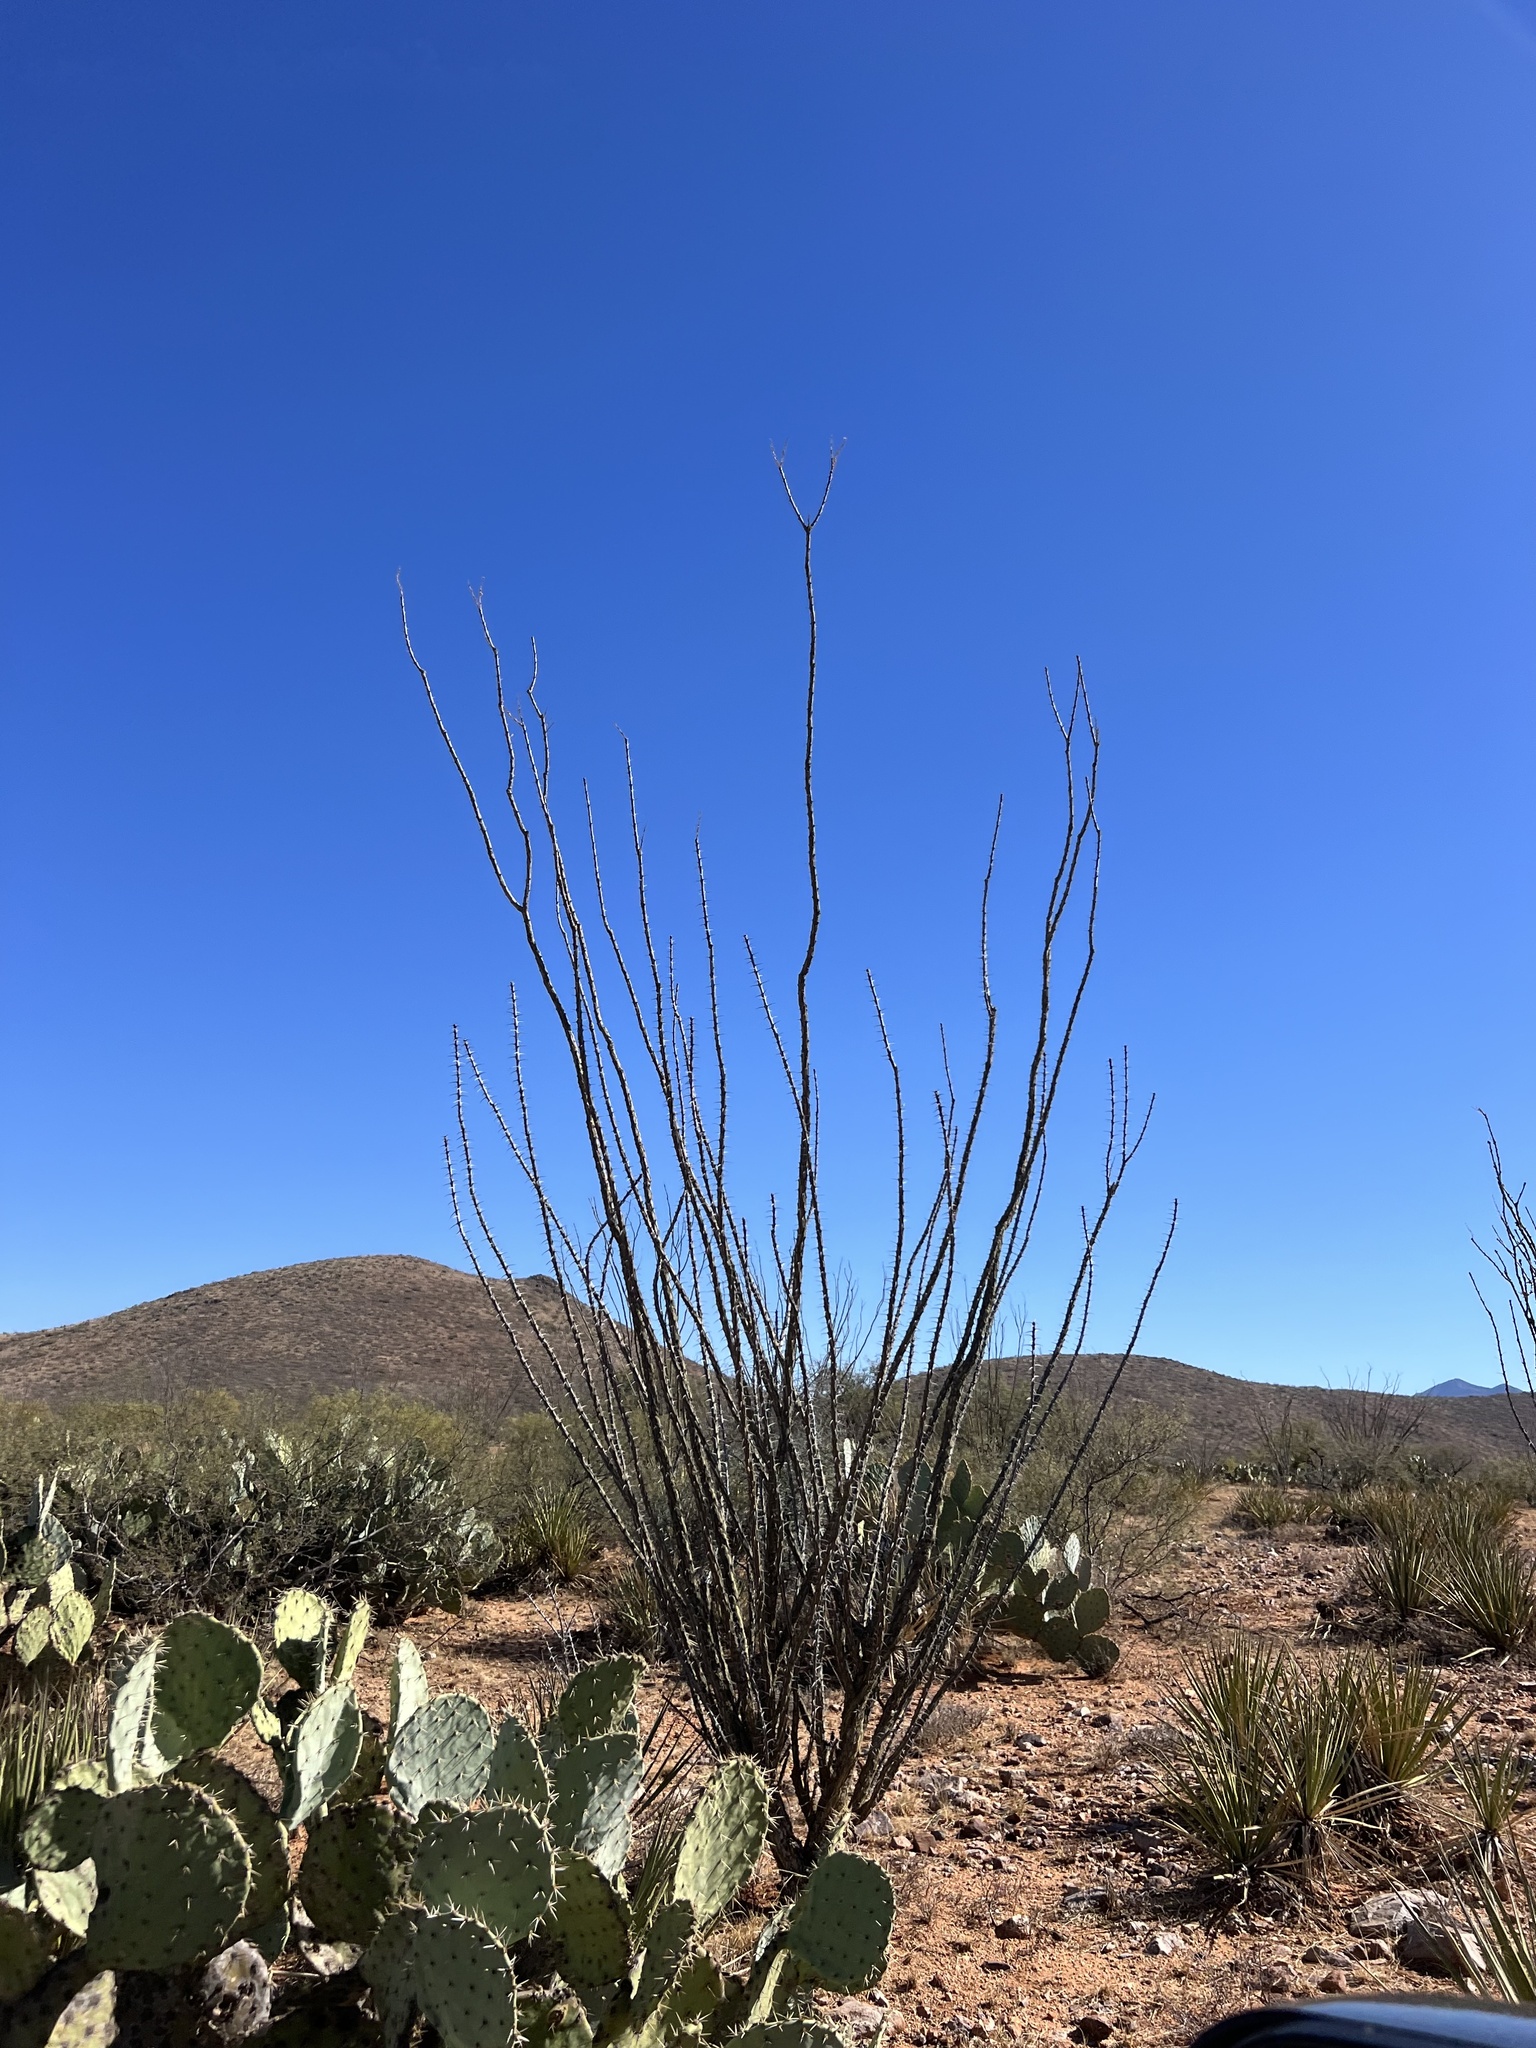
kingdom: Plantae
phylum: Tracheophyta
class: Magnoliopsida
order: Ericales
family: Fouquieriaceae
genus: Fouquieria
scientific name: Fouquieria splendens
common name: Vine-cactus
